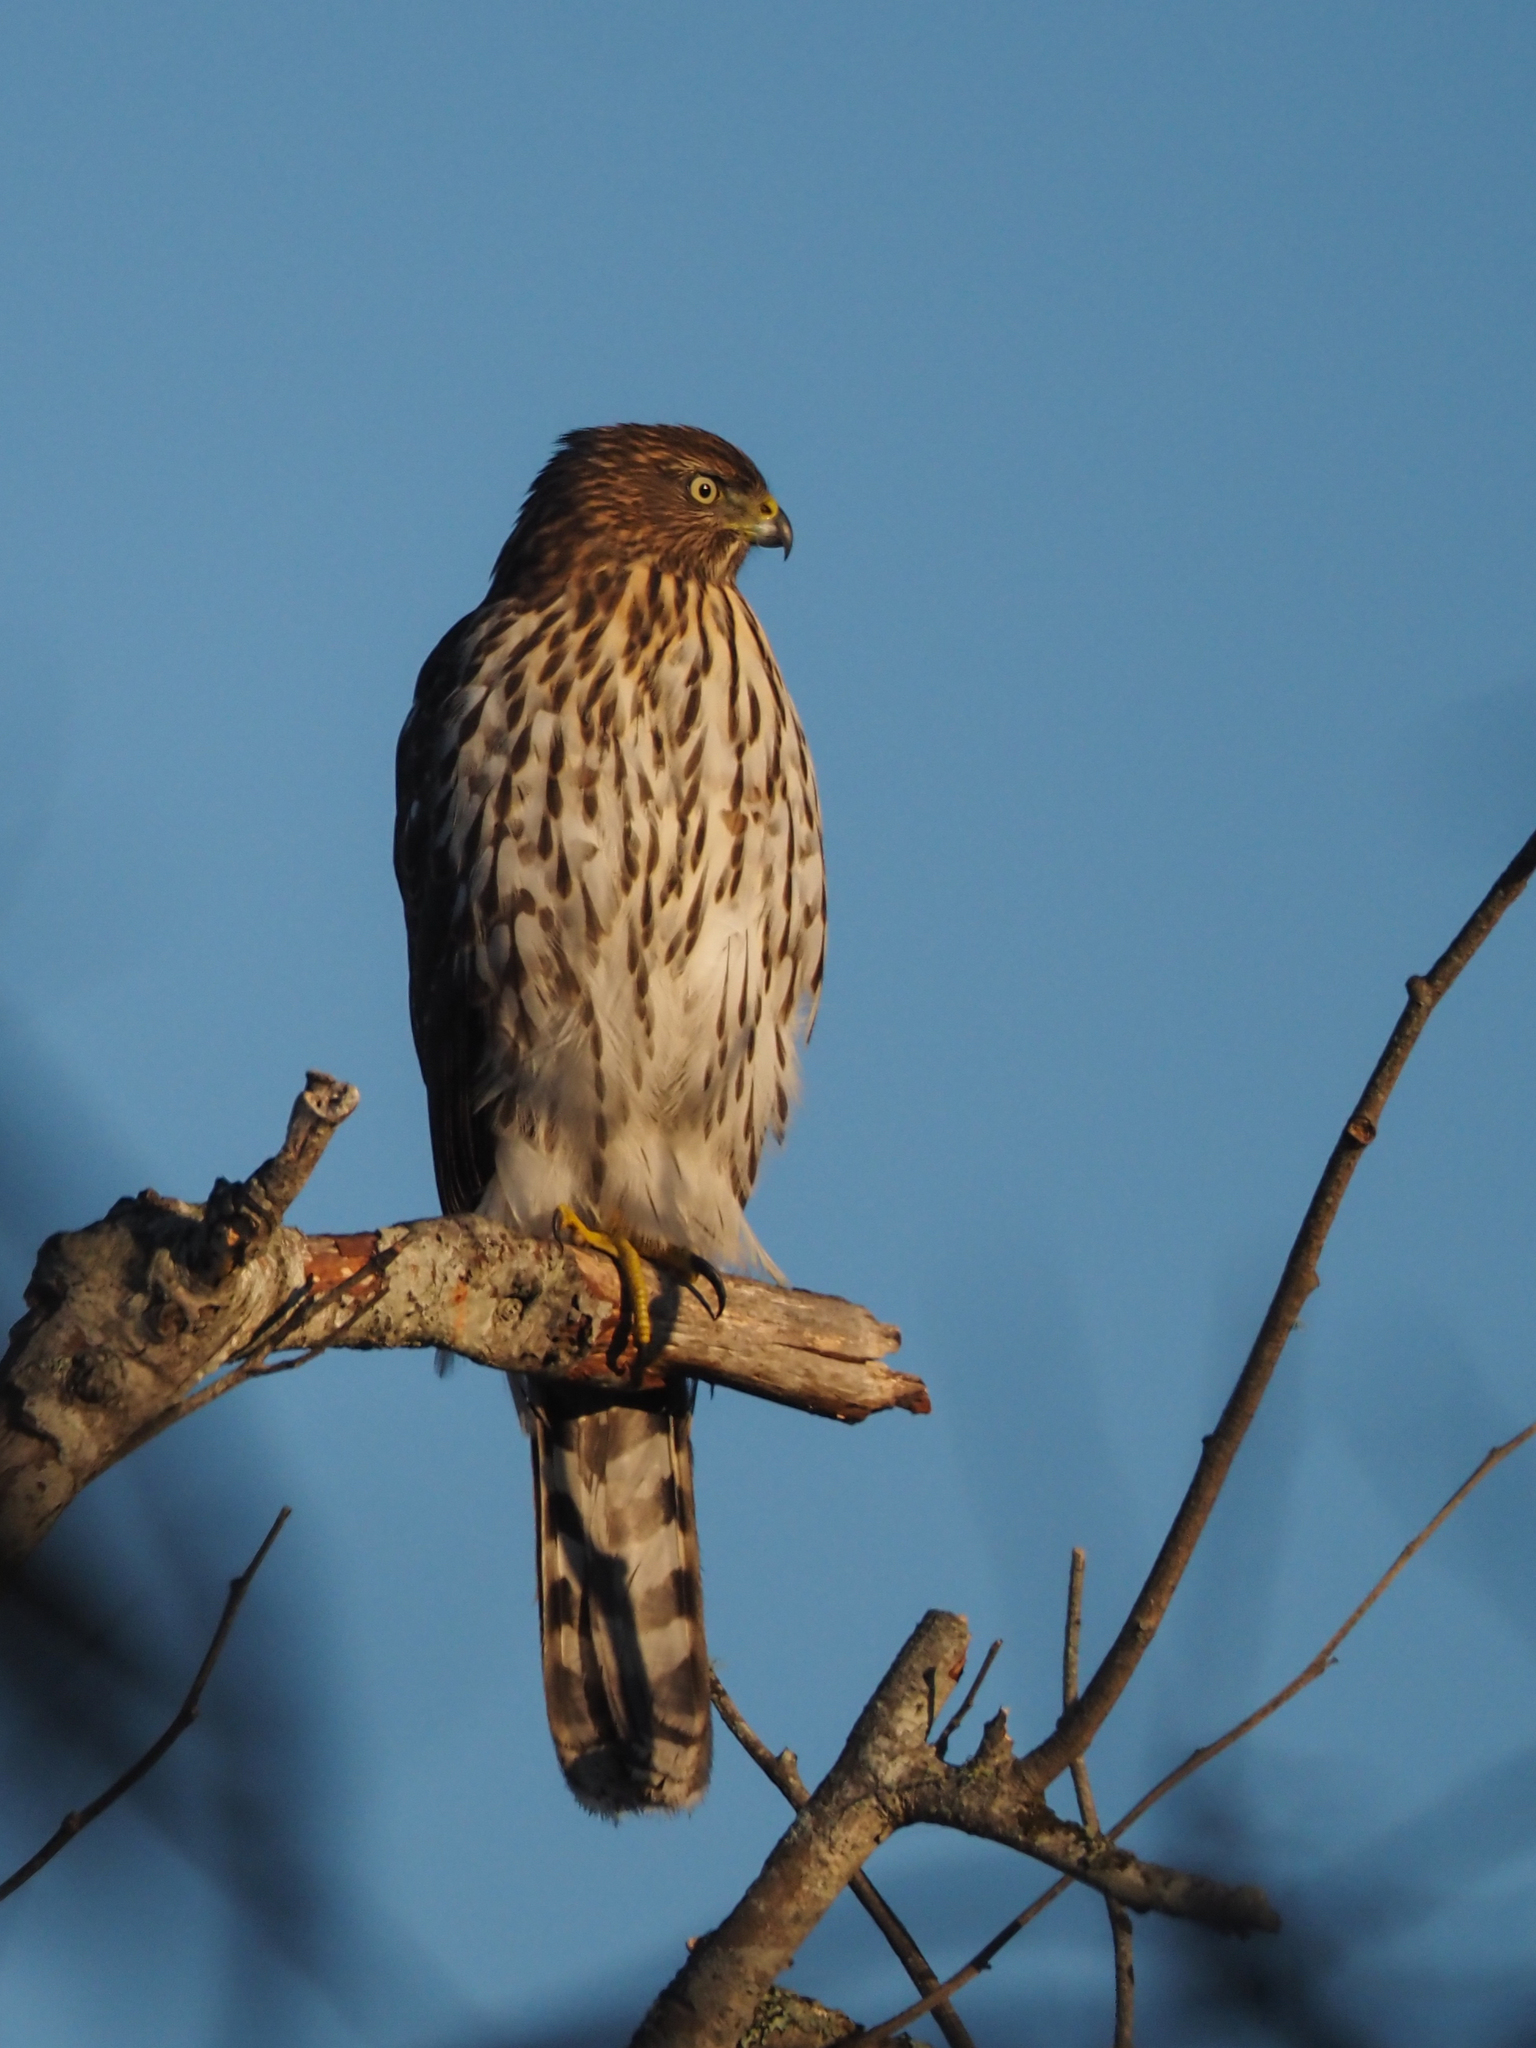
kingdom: Animalia
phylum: Chordata
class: Aves
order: Accipitriformes
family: Accipitridae
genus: Accipiter
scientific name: Accipiter cooperii
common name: Cooper's hawk
